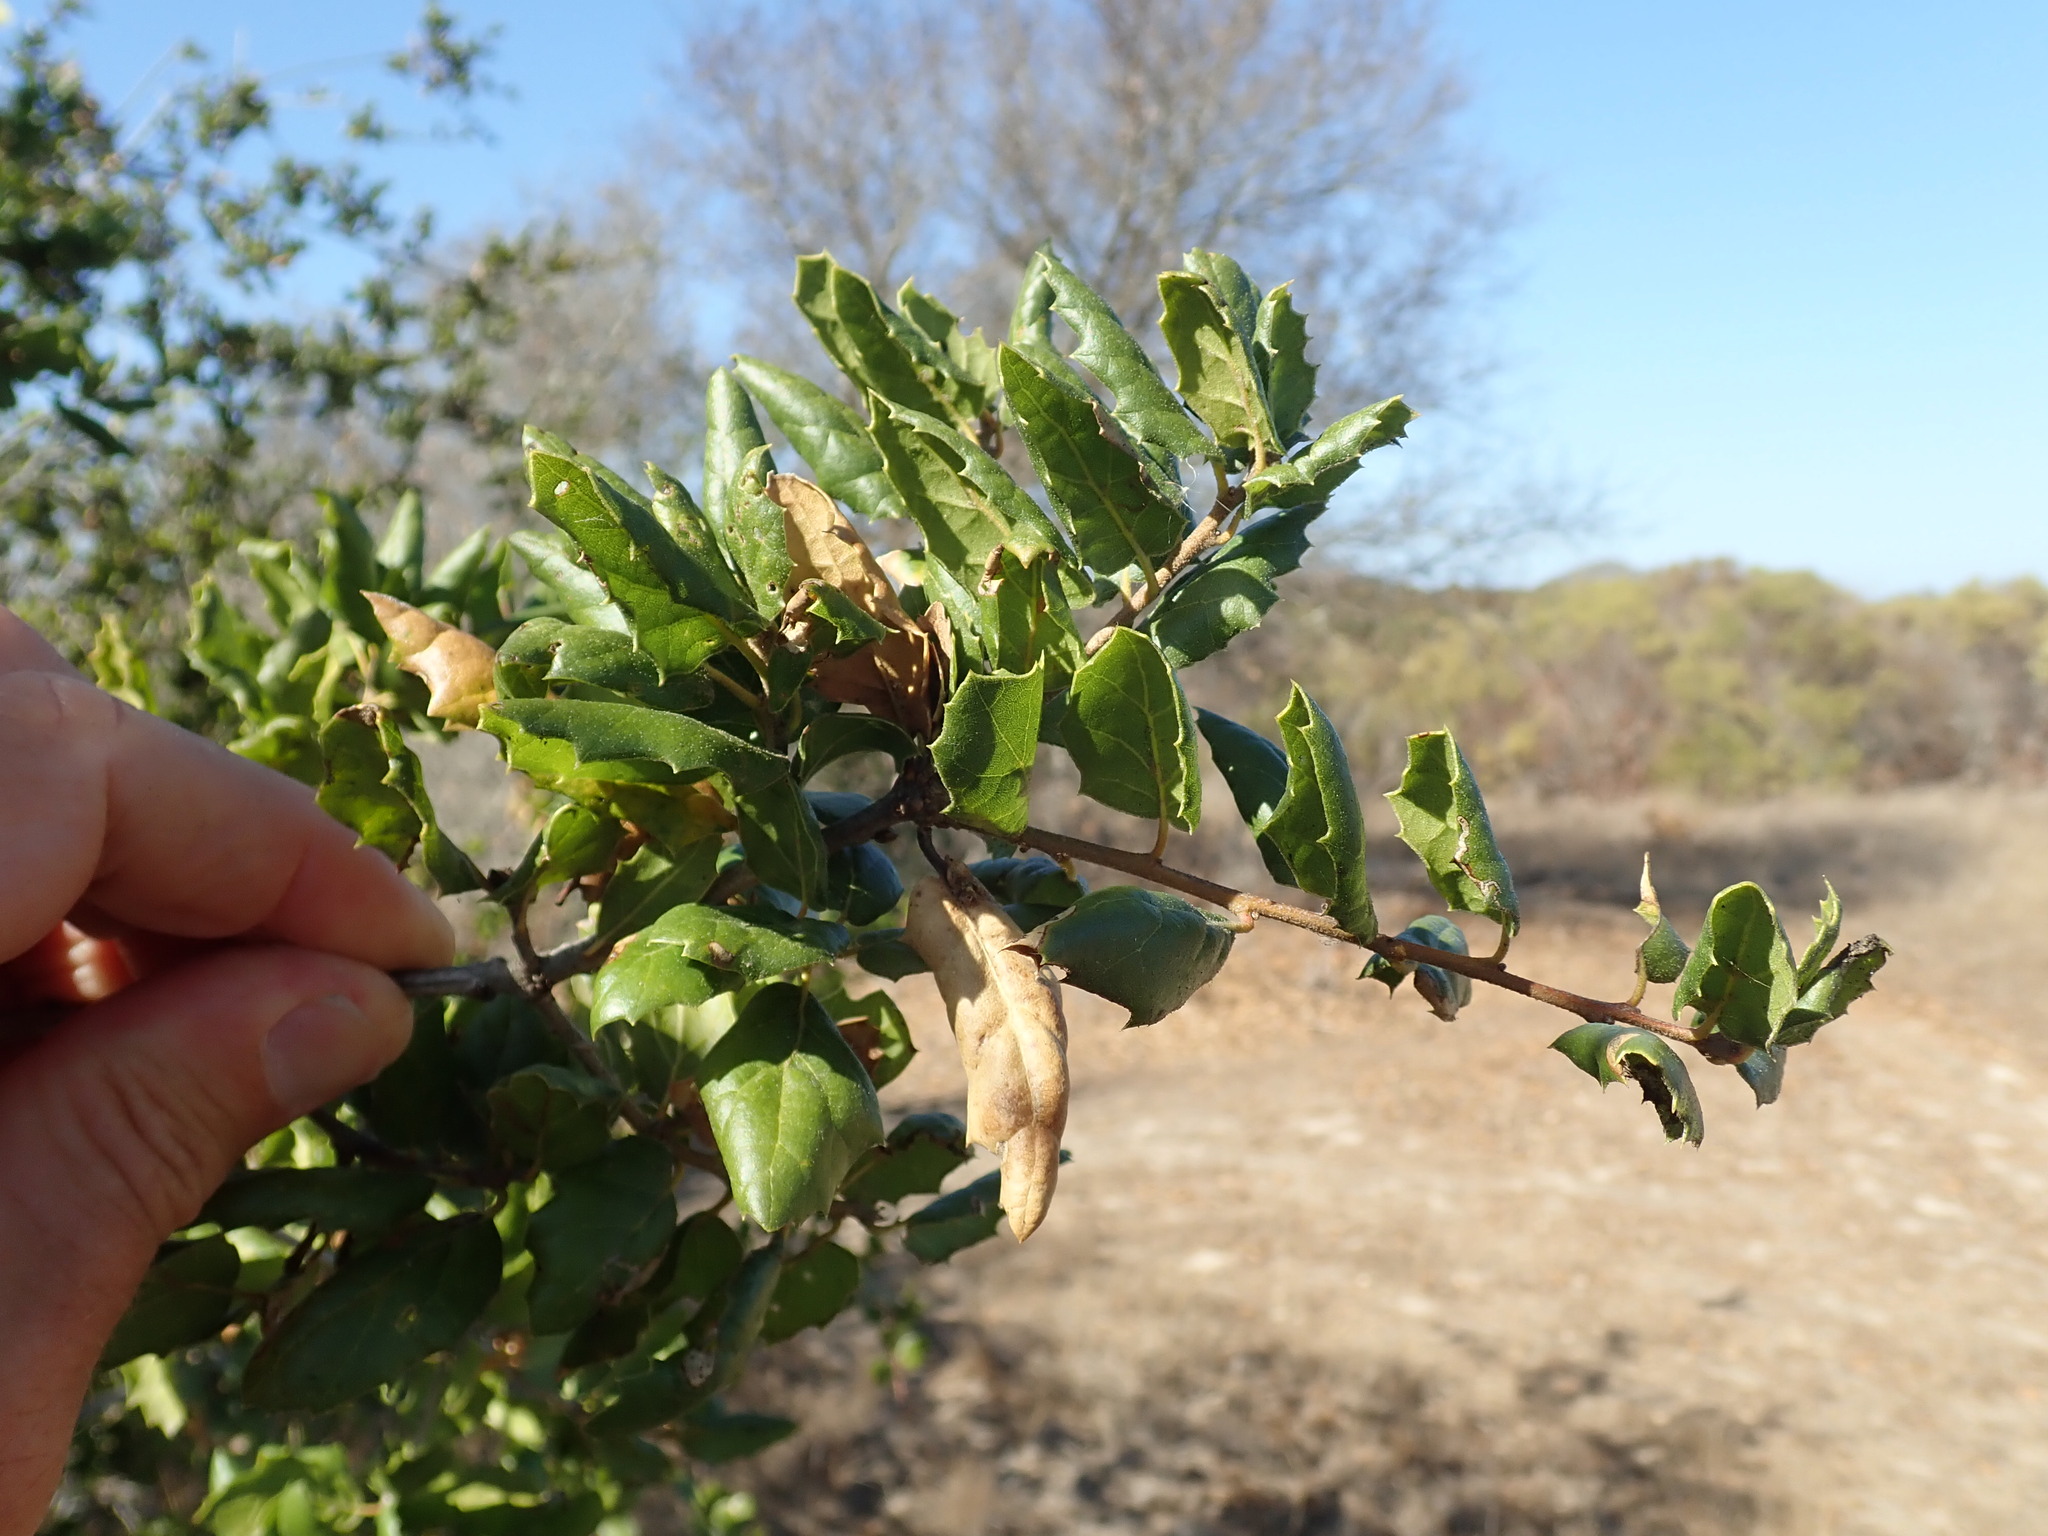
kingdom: Plantae
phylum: Tracheophyta
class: Magnoliopsida
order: Fagales
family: Fagaceae
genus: Quercus
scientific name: Quercus agrifolia
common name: California live oak
